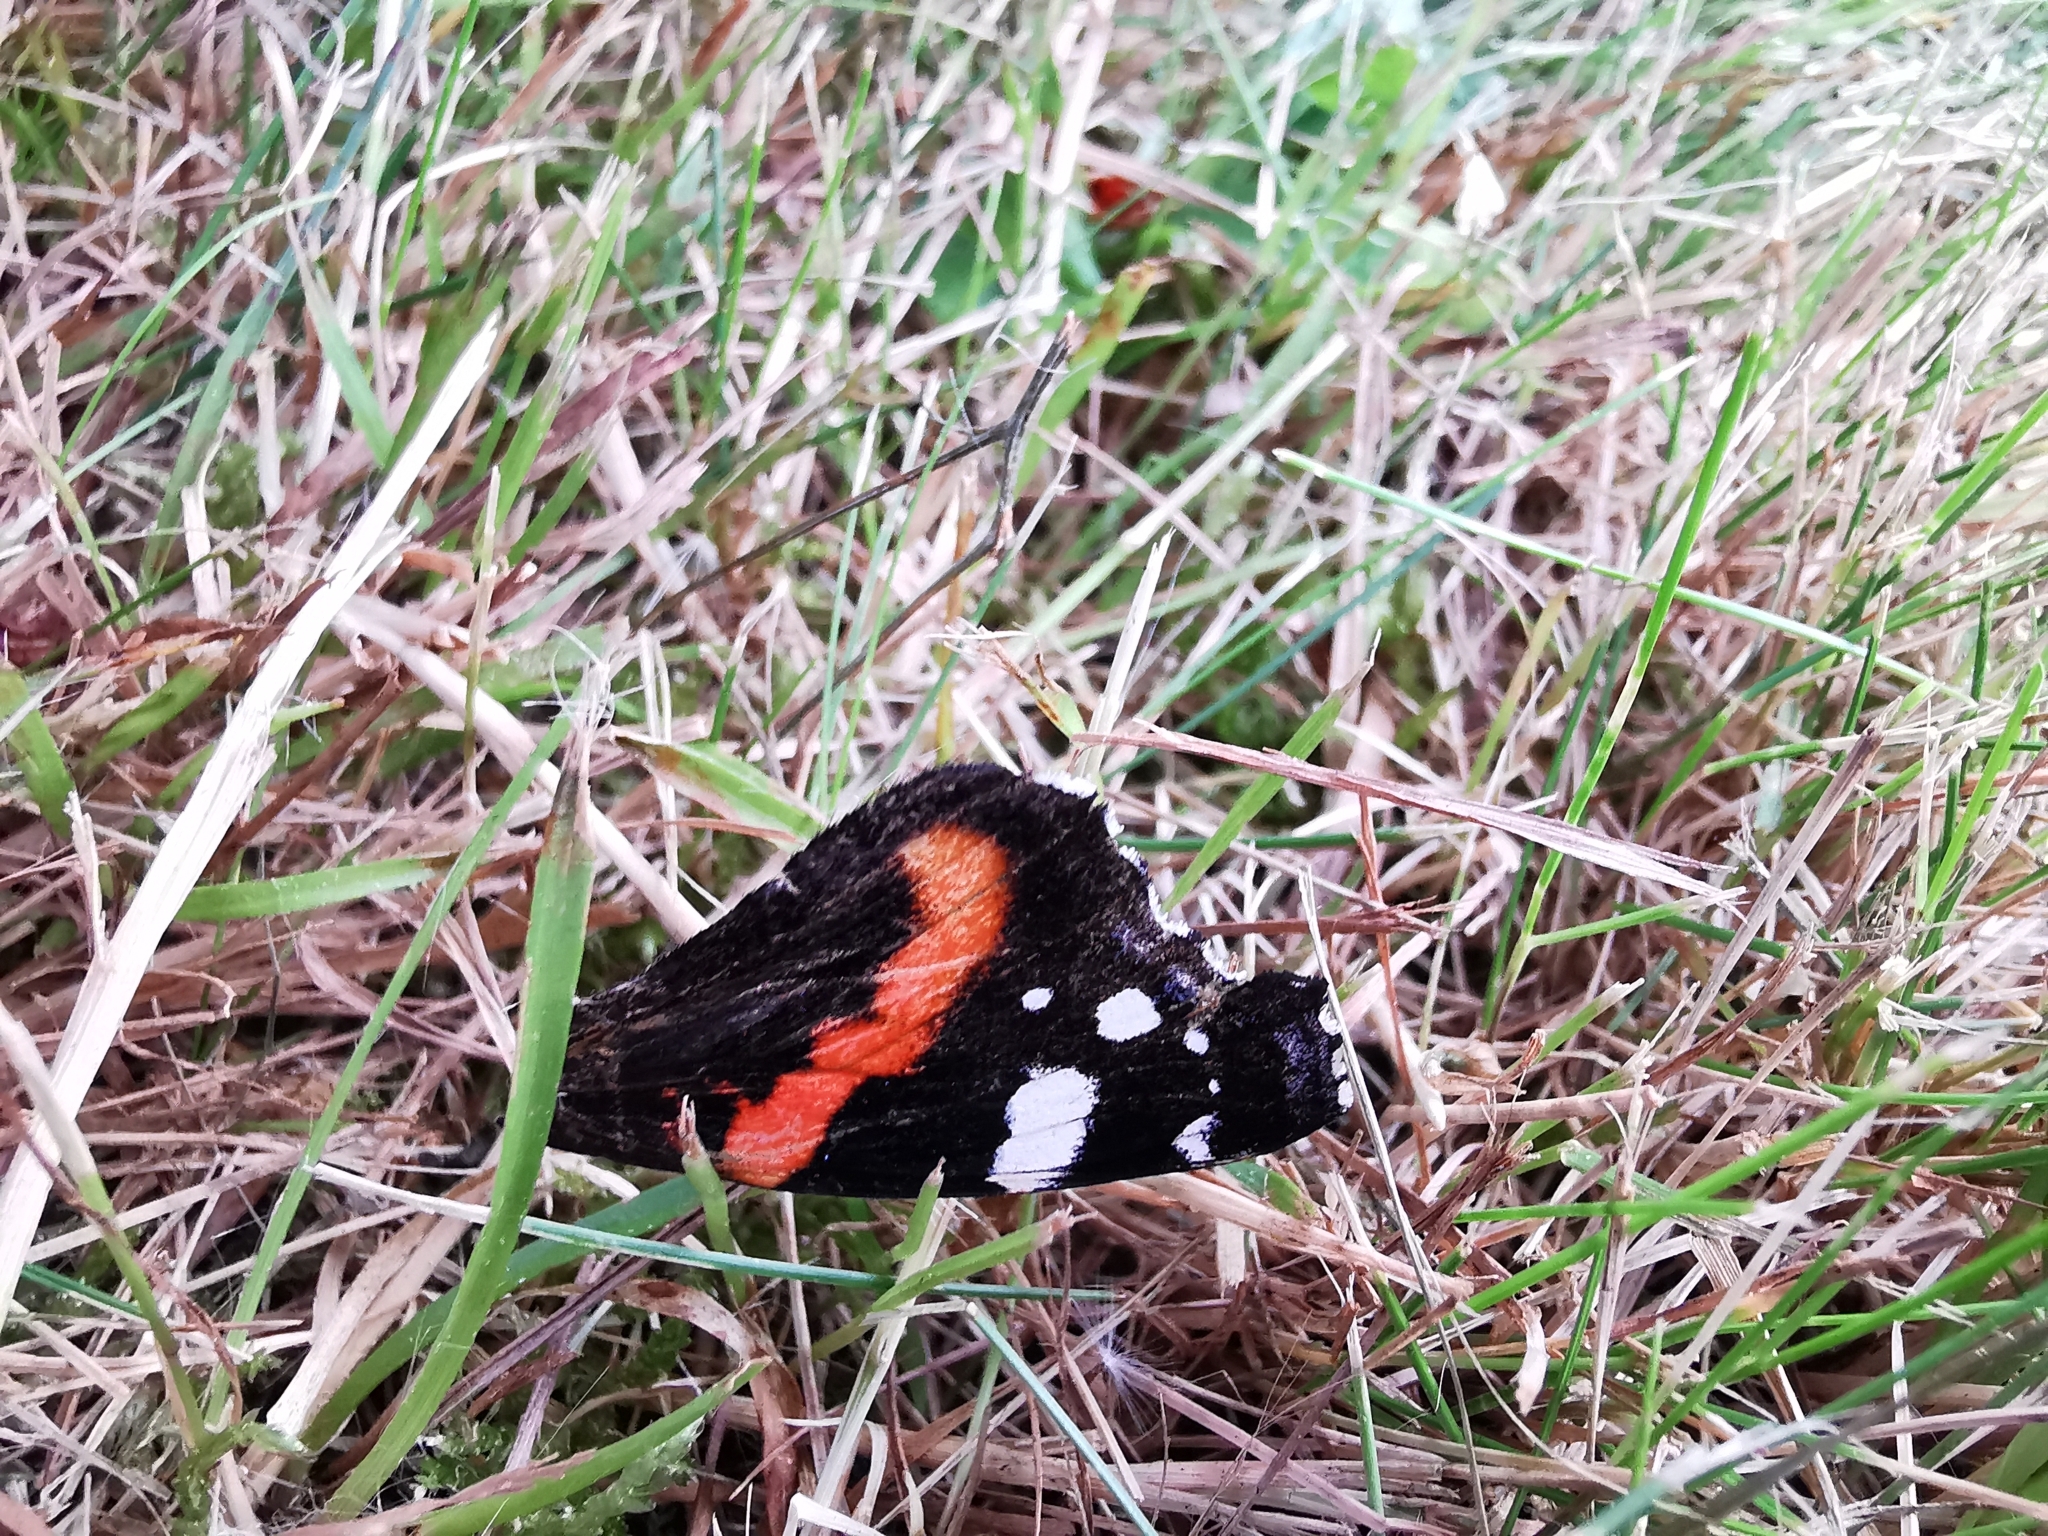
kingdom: Animalia
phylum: Arthropoda
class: Insecta
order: Lepidoptera
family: Nymphalidae
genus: Vanessa
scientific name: Vanessa atalanta
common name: Red admiral
